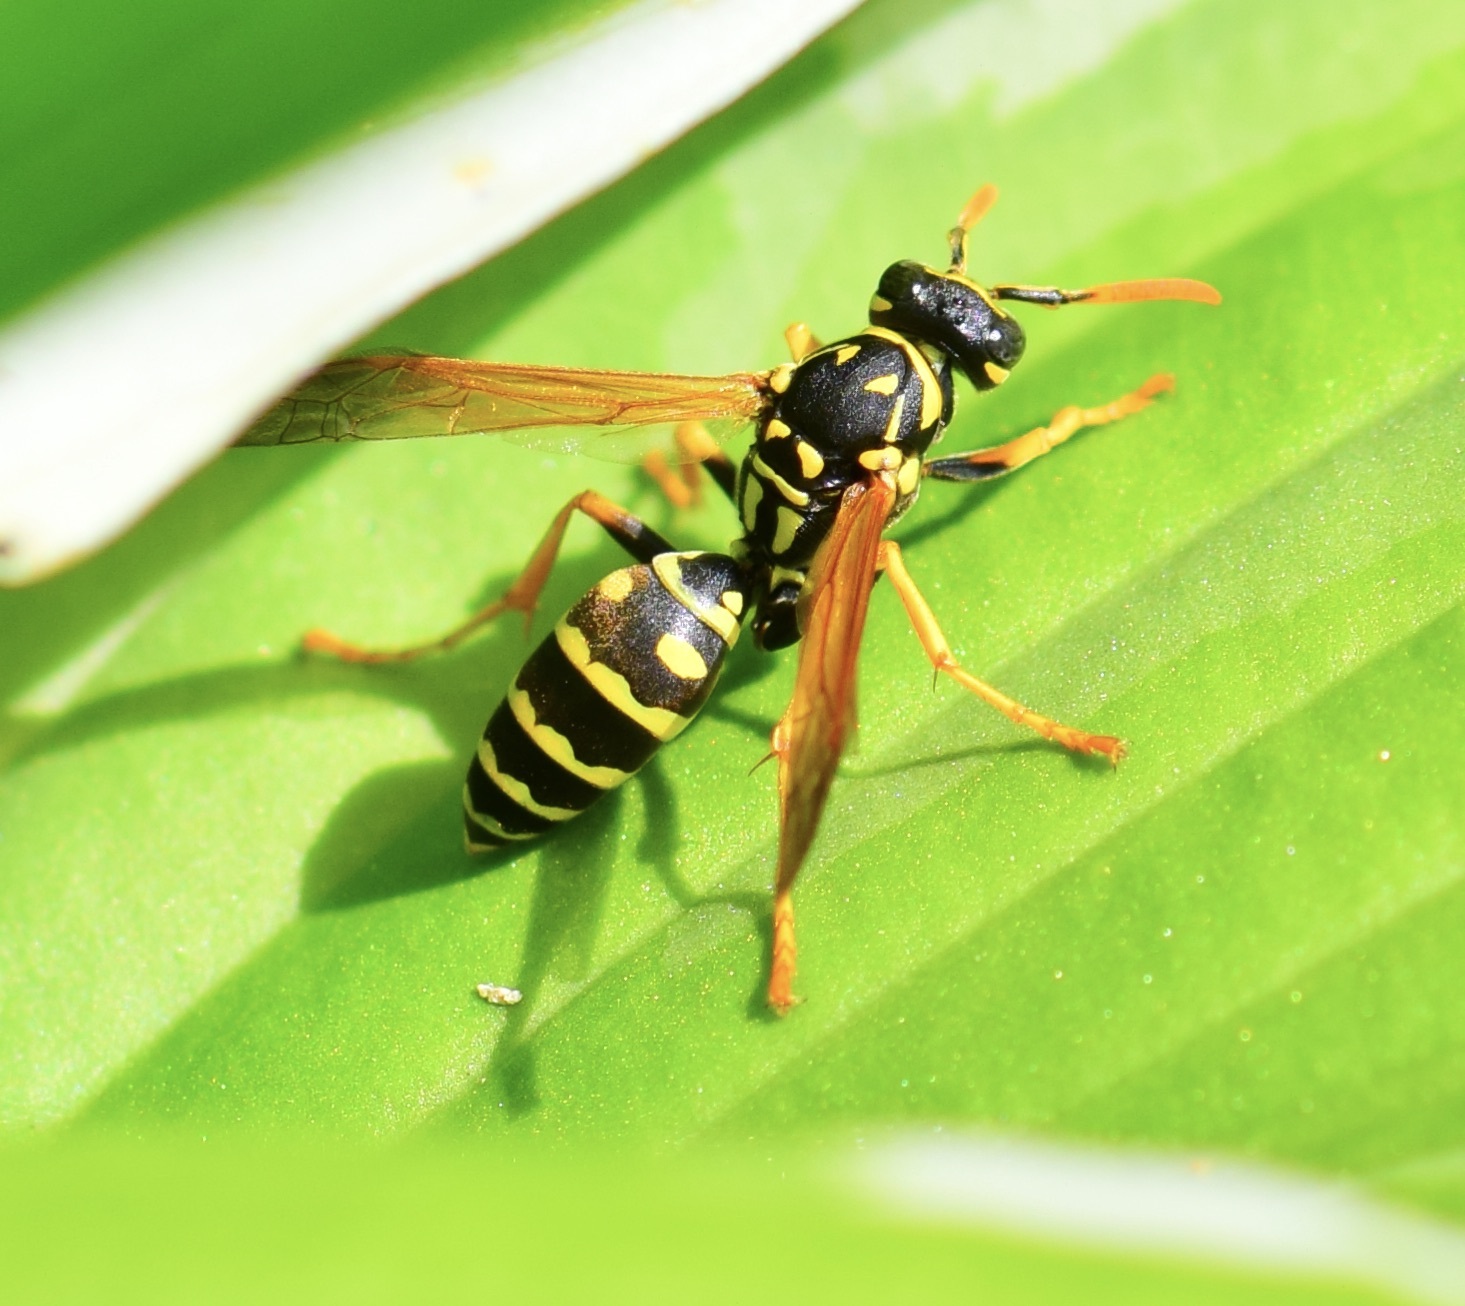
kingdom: Animalia
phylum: Arthropoda
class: Insecta
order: Hymenoptera
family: Eumenidae
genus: Polistes
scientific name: Polistes dominula
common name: Paper wasp
